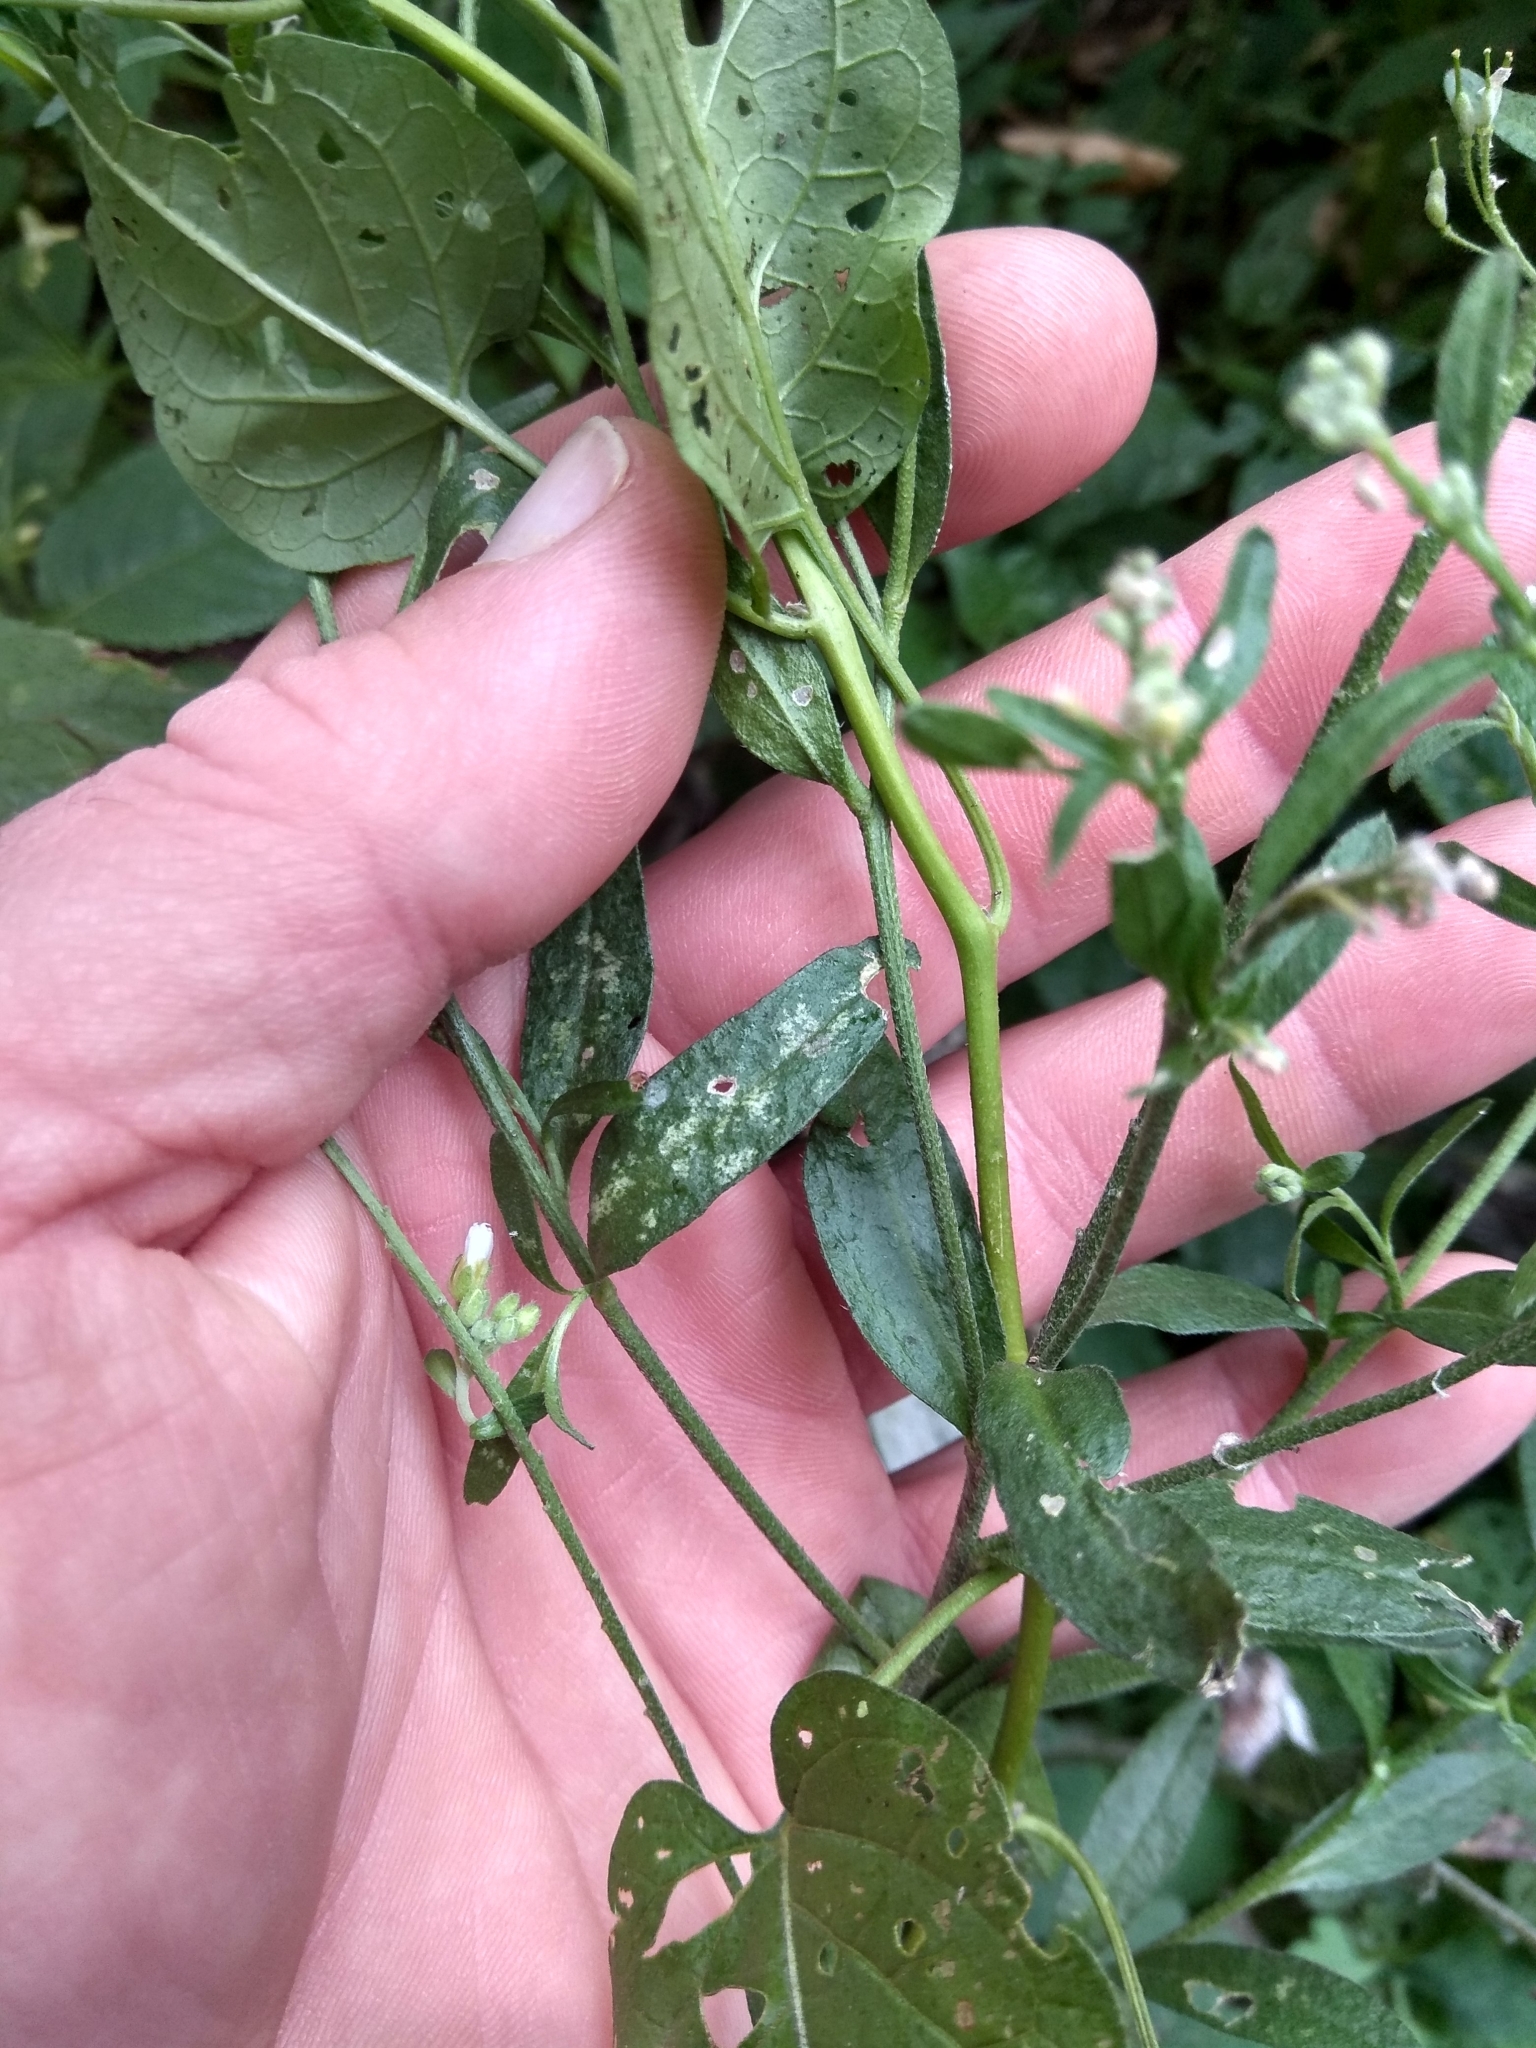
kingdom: Plantae
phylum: Tracheophyta
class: Magnoliopsida
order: Brassicales
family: Brassicaceae
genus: Berteroa
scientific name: Berteroa incana
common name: Hoary alison
